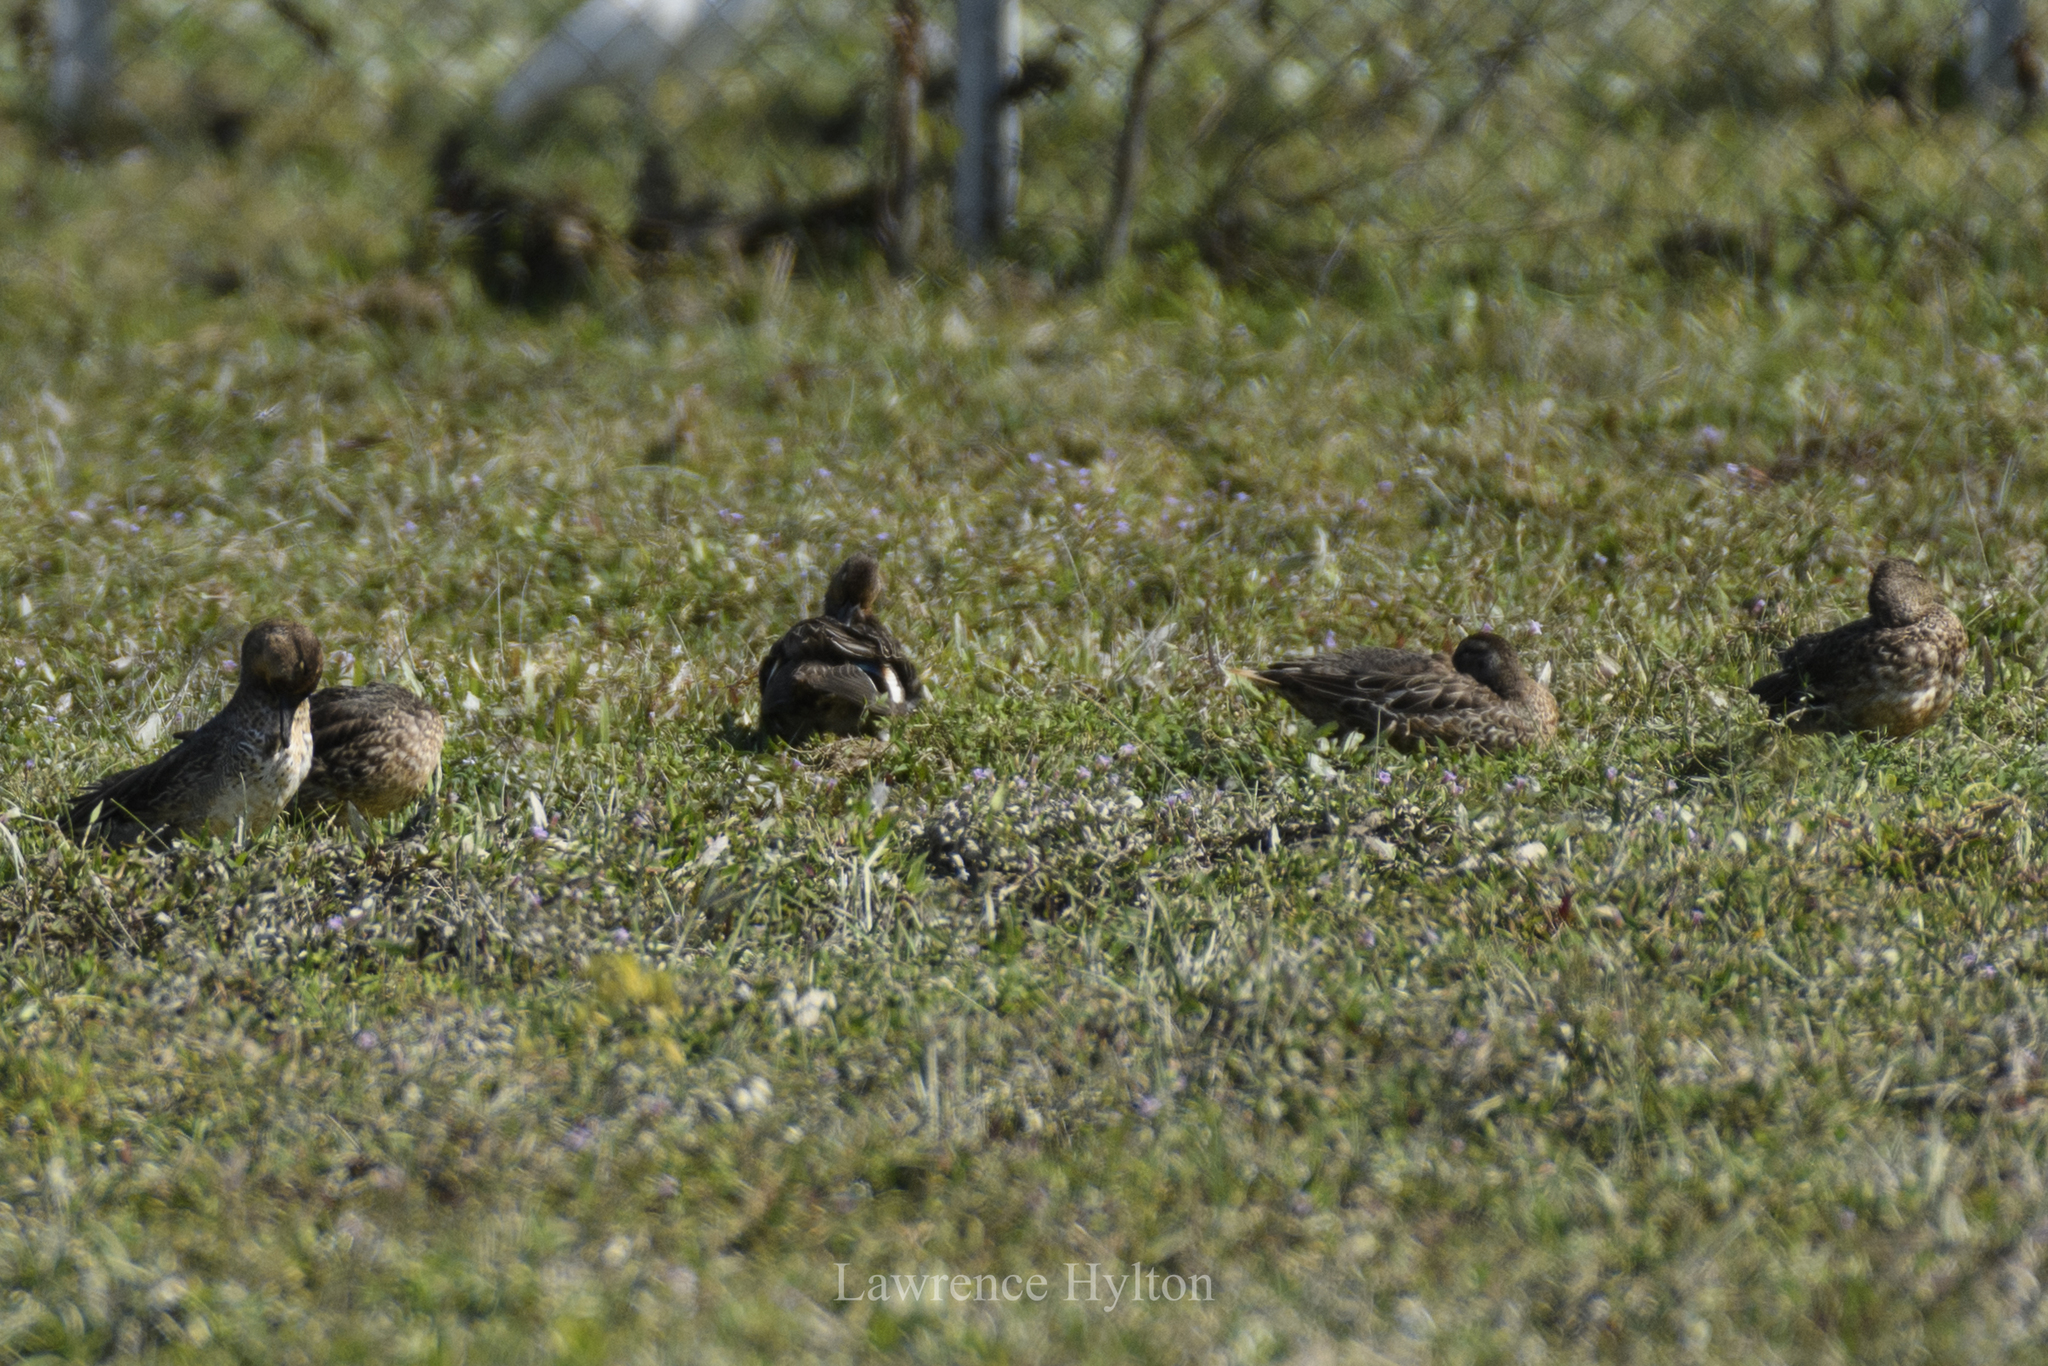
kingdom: Animalia
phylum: Chordata
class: Aves
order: Anseriformes
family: Anatidae
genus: Anas
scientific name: Anas crecca
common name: Eurasian teal
